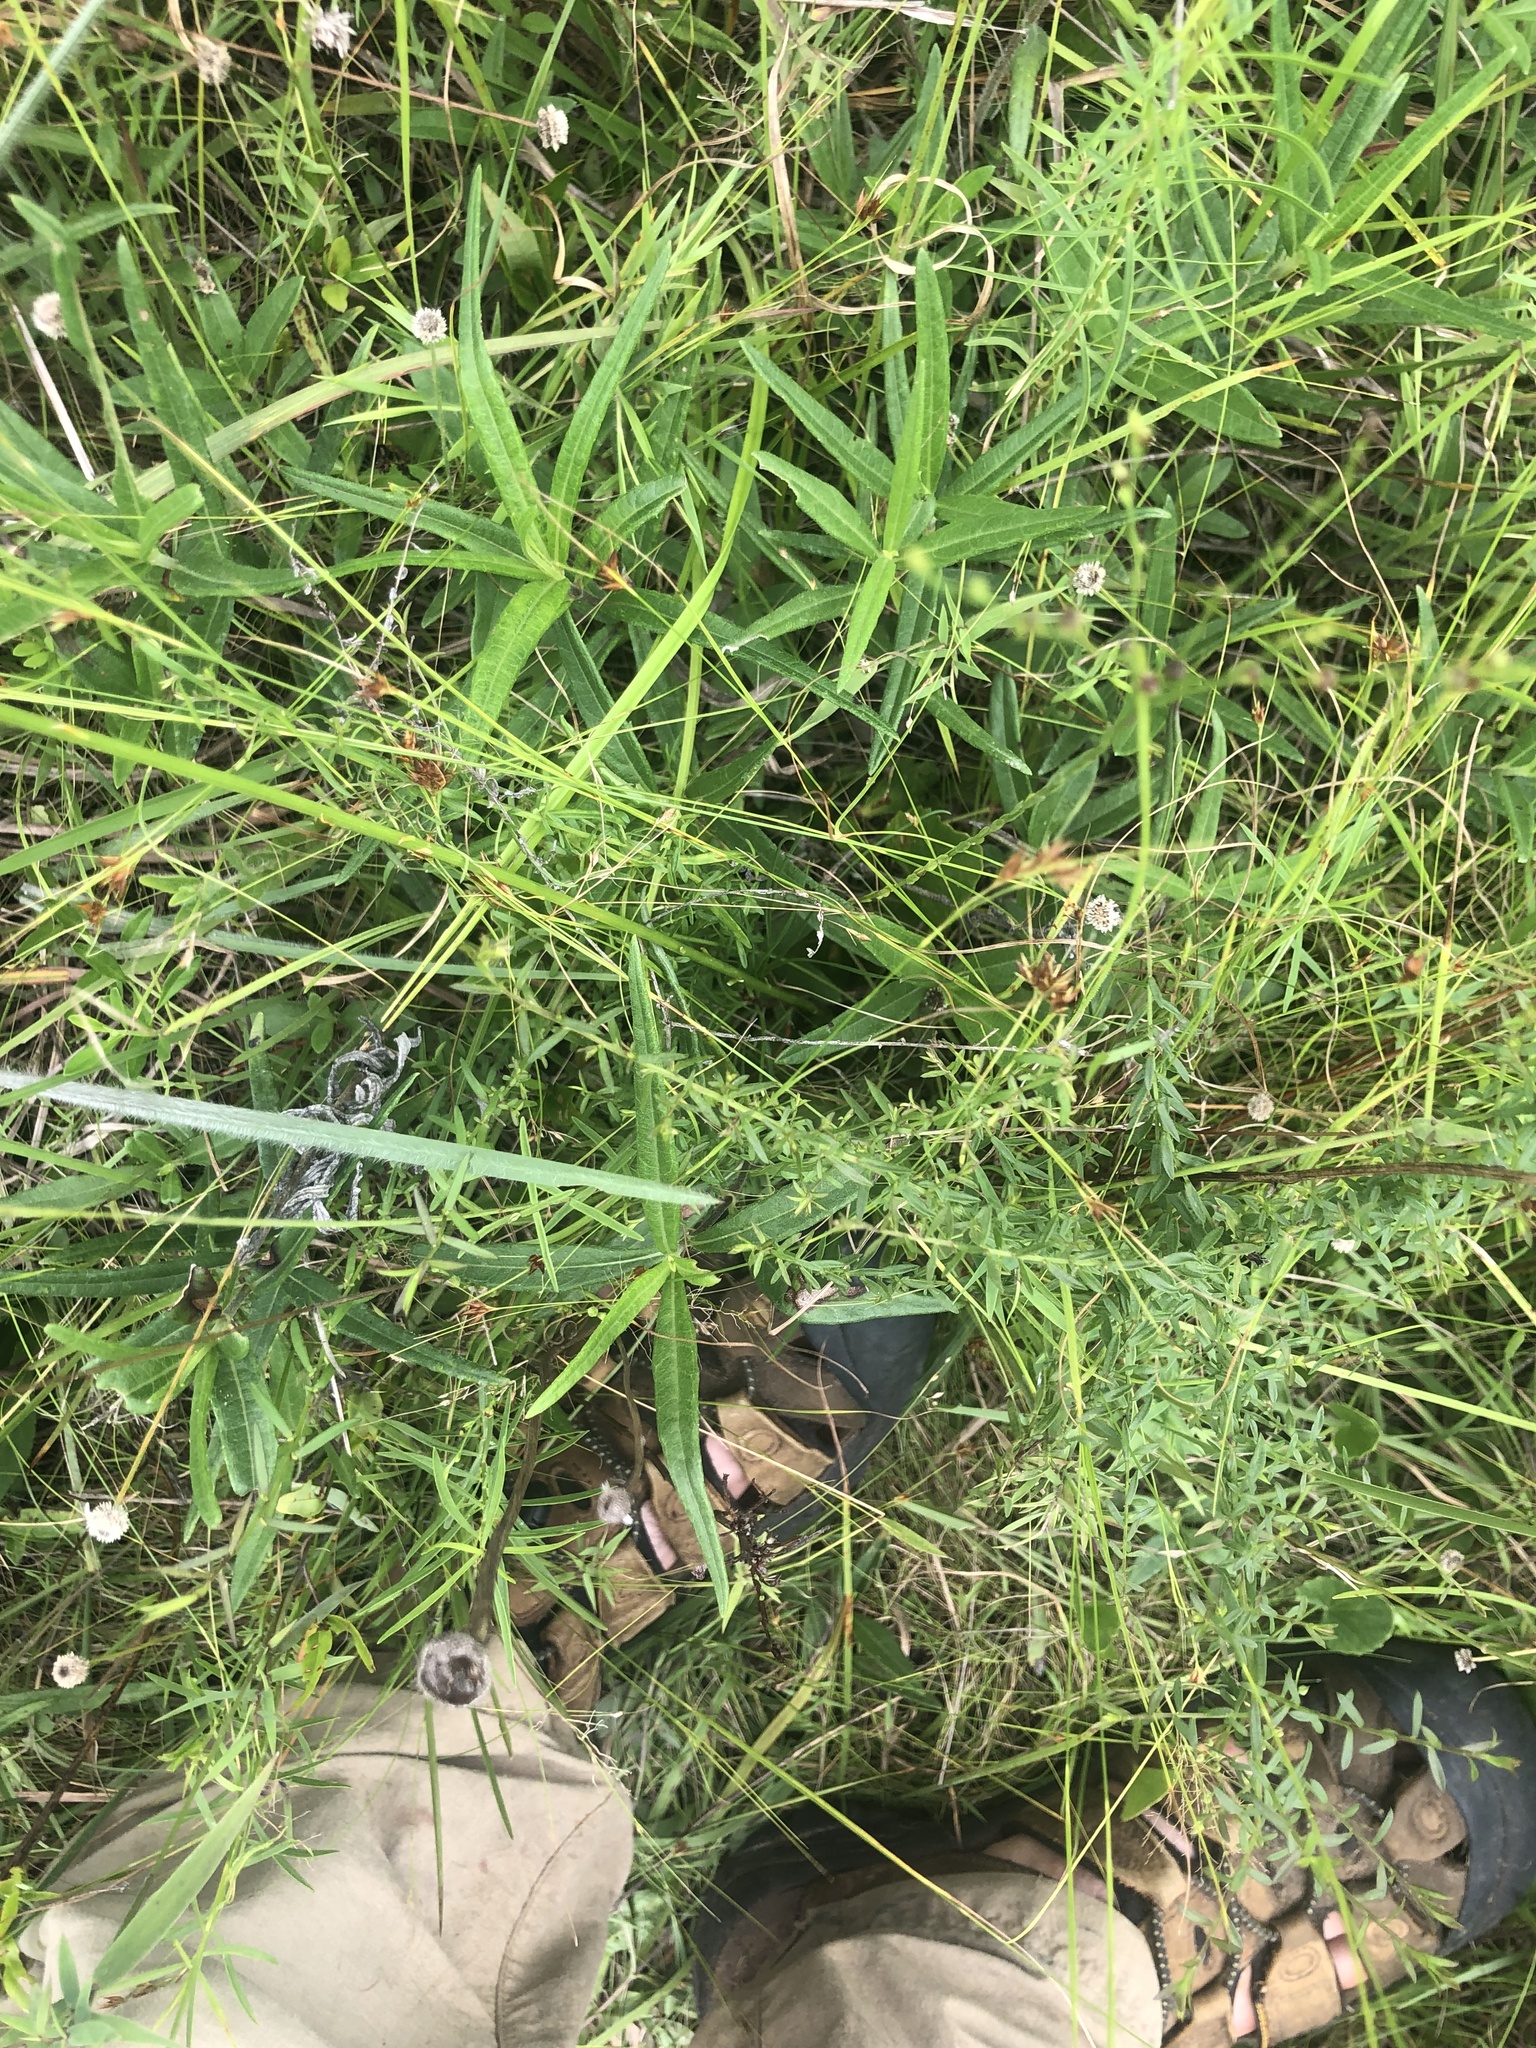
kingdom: Plantae
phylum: Tracheophyta
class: Magnoliopsida
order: Asterales
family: Asteraceae
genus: Euthamia
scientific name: Euthamia caroliniana
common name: Coastal plain goldentop
